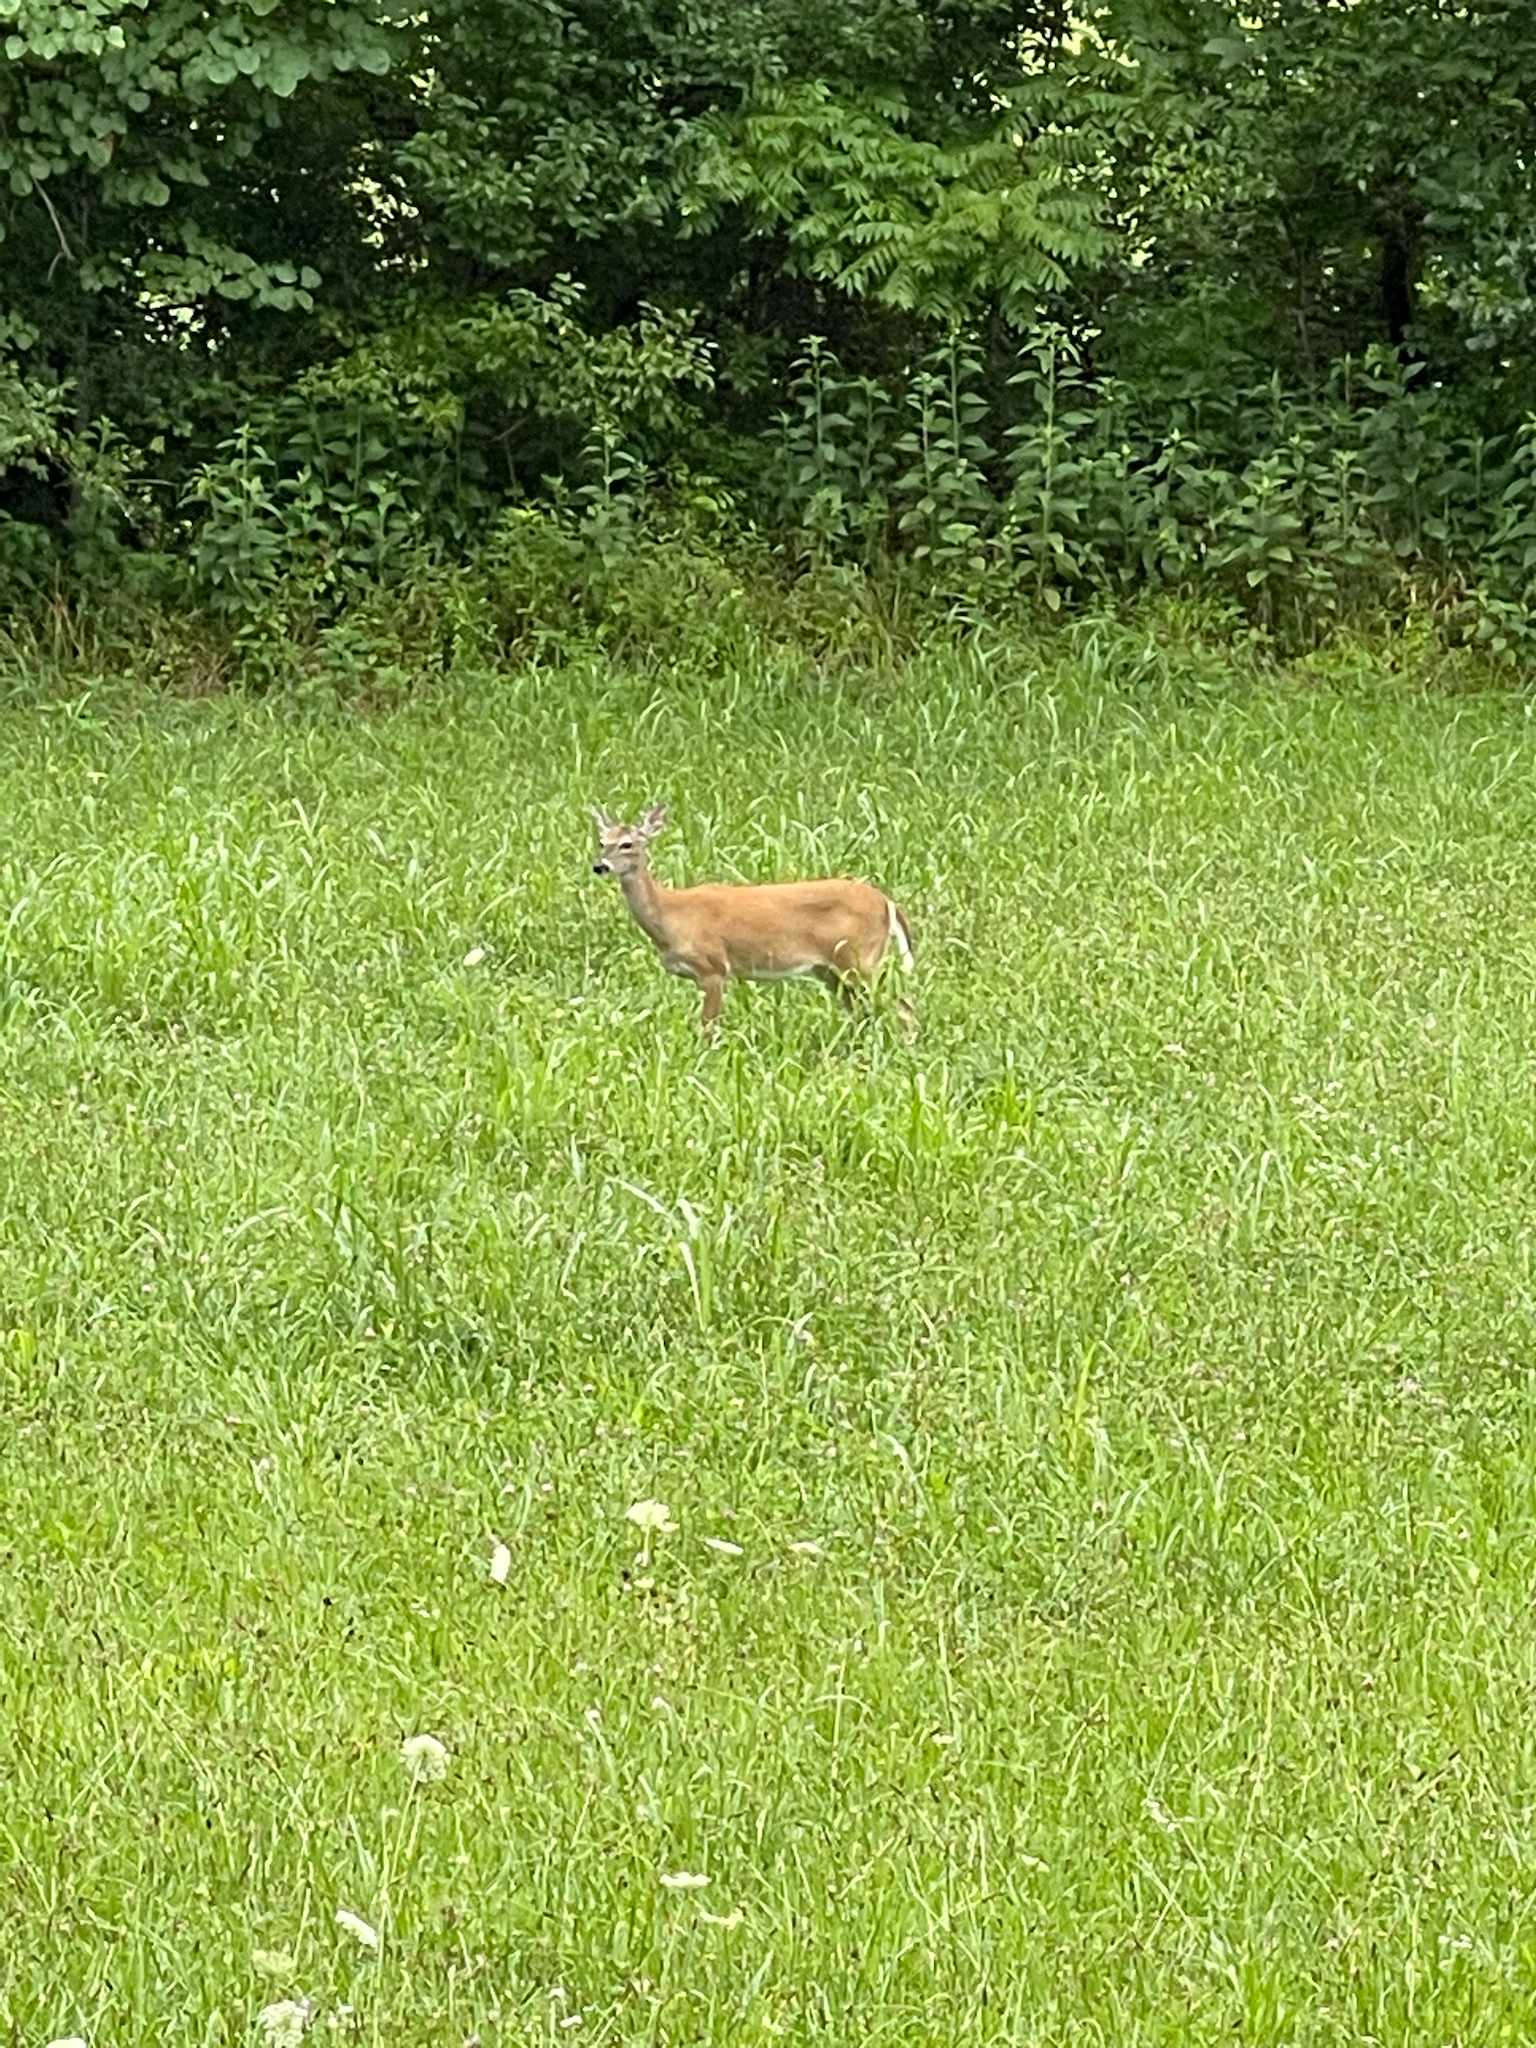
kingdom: Animalia
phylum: Chordata
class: Mammalia
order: Artiodactyla
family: Cervidae
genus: Odocoileus
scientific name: Odocoileus virginianus
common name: White-tailed deer
